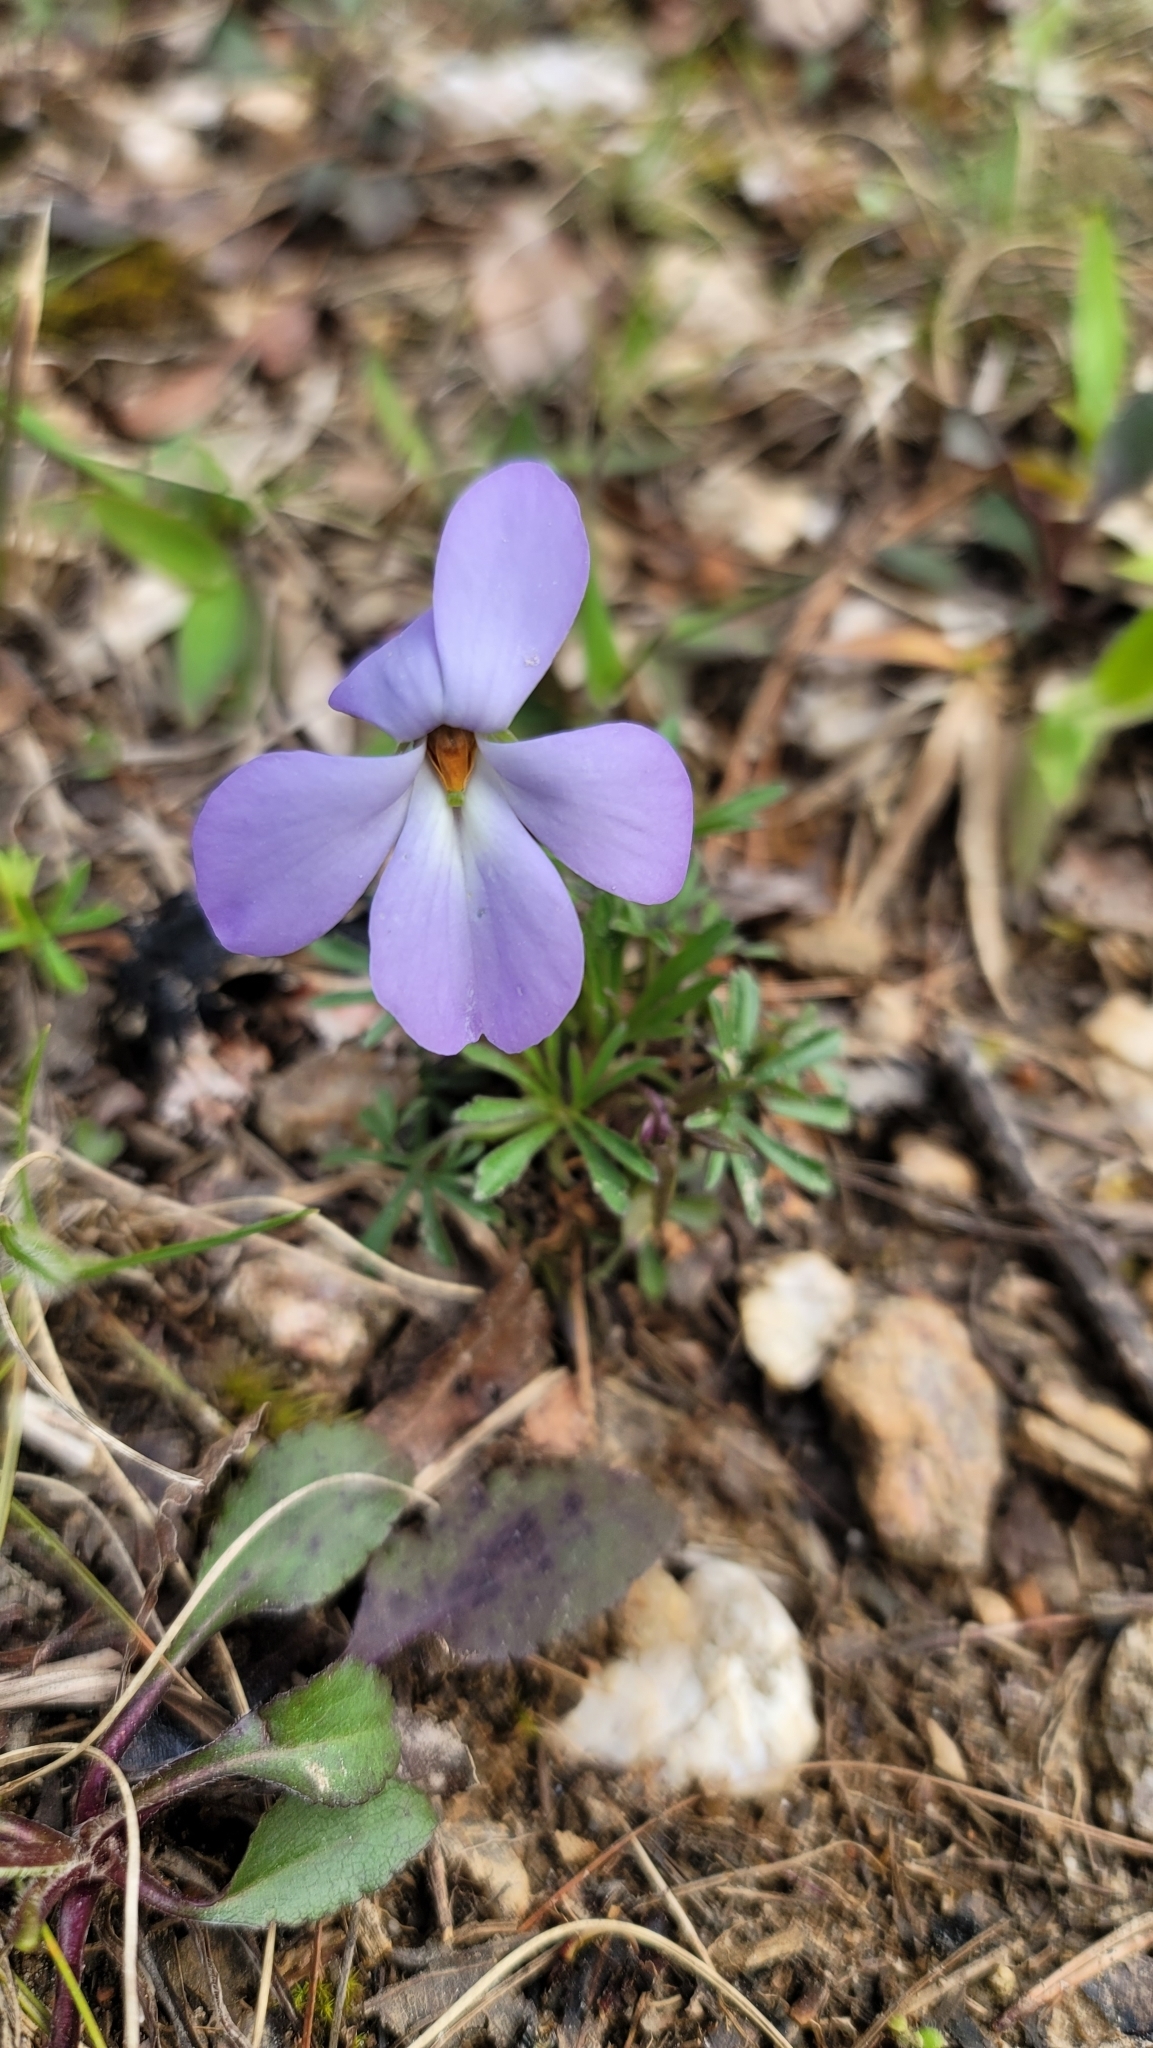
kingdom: Plantae
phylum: Tracheophyta
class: Magnoliopsida
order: Malpighiales
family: Violaceae
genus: Viola
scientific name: Viola pedata
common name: Pansy violet
